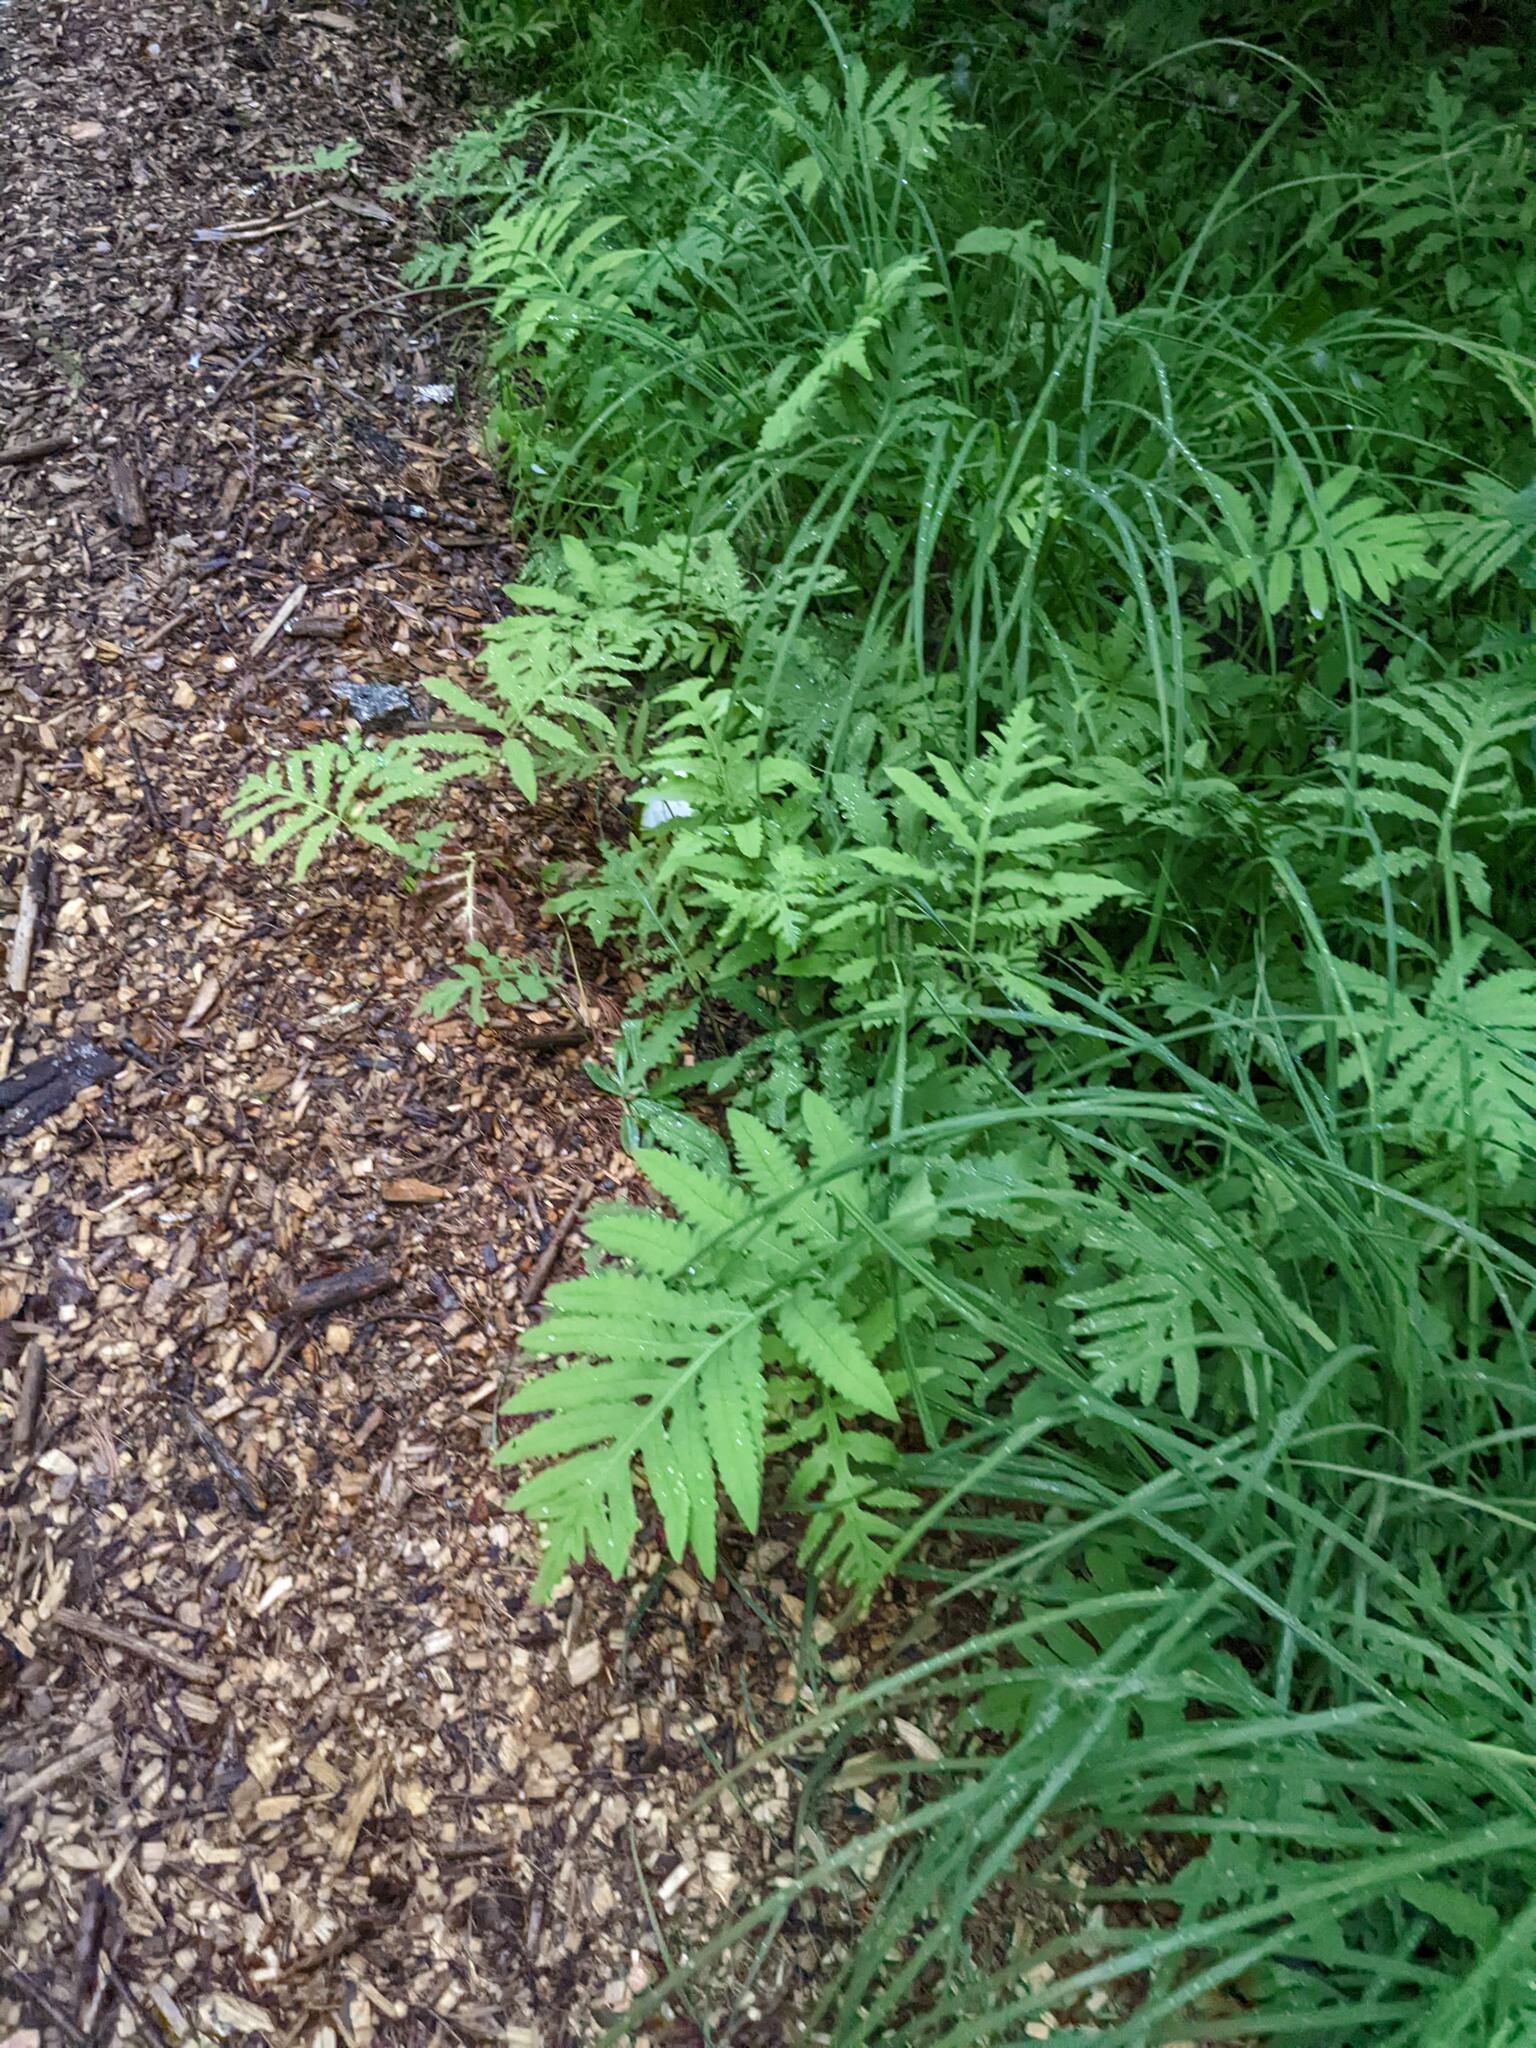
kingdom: Plantae
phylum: Tracheophyta
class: Polypodiopsida
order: Polypodiales
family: Onocleaceae
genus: Onoclea
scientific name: Onoclea sensibilis
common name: Sensitive fern
